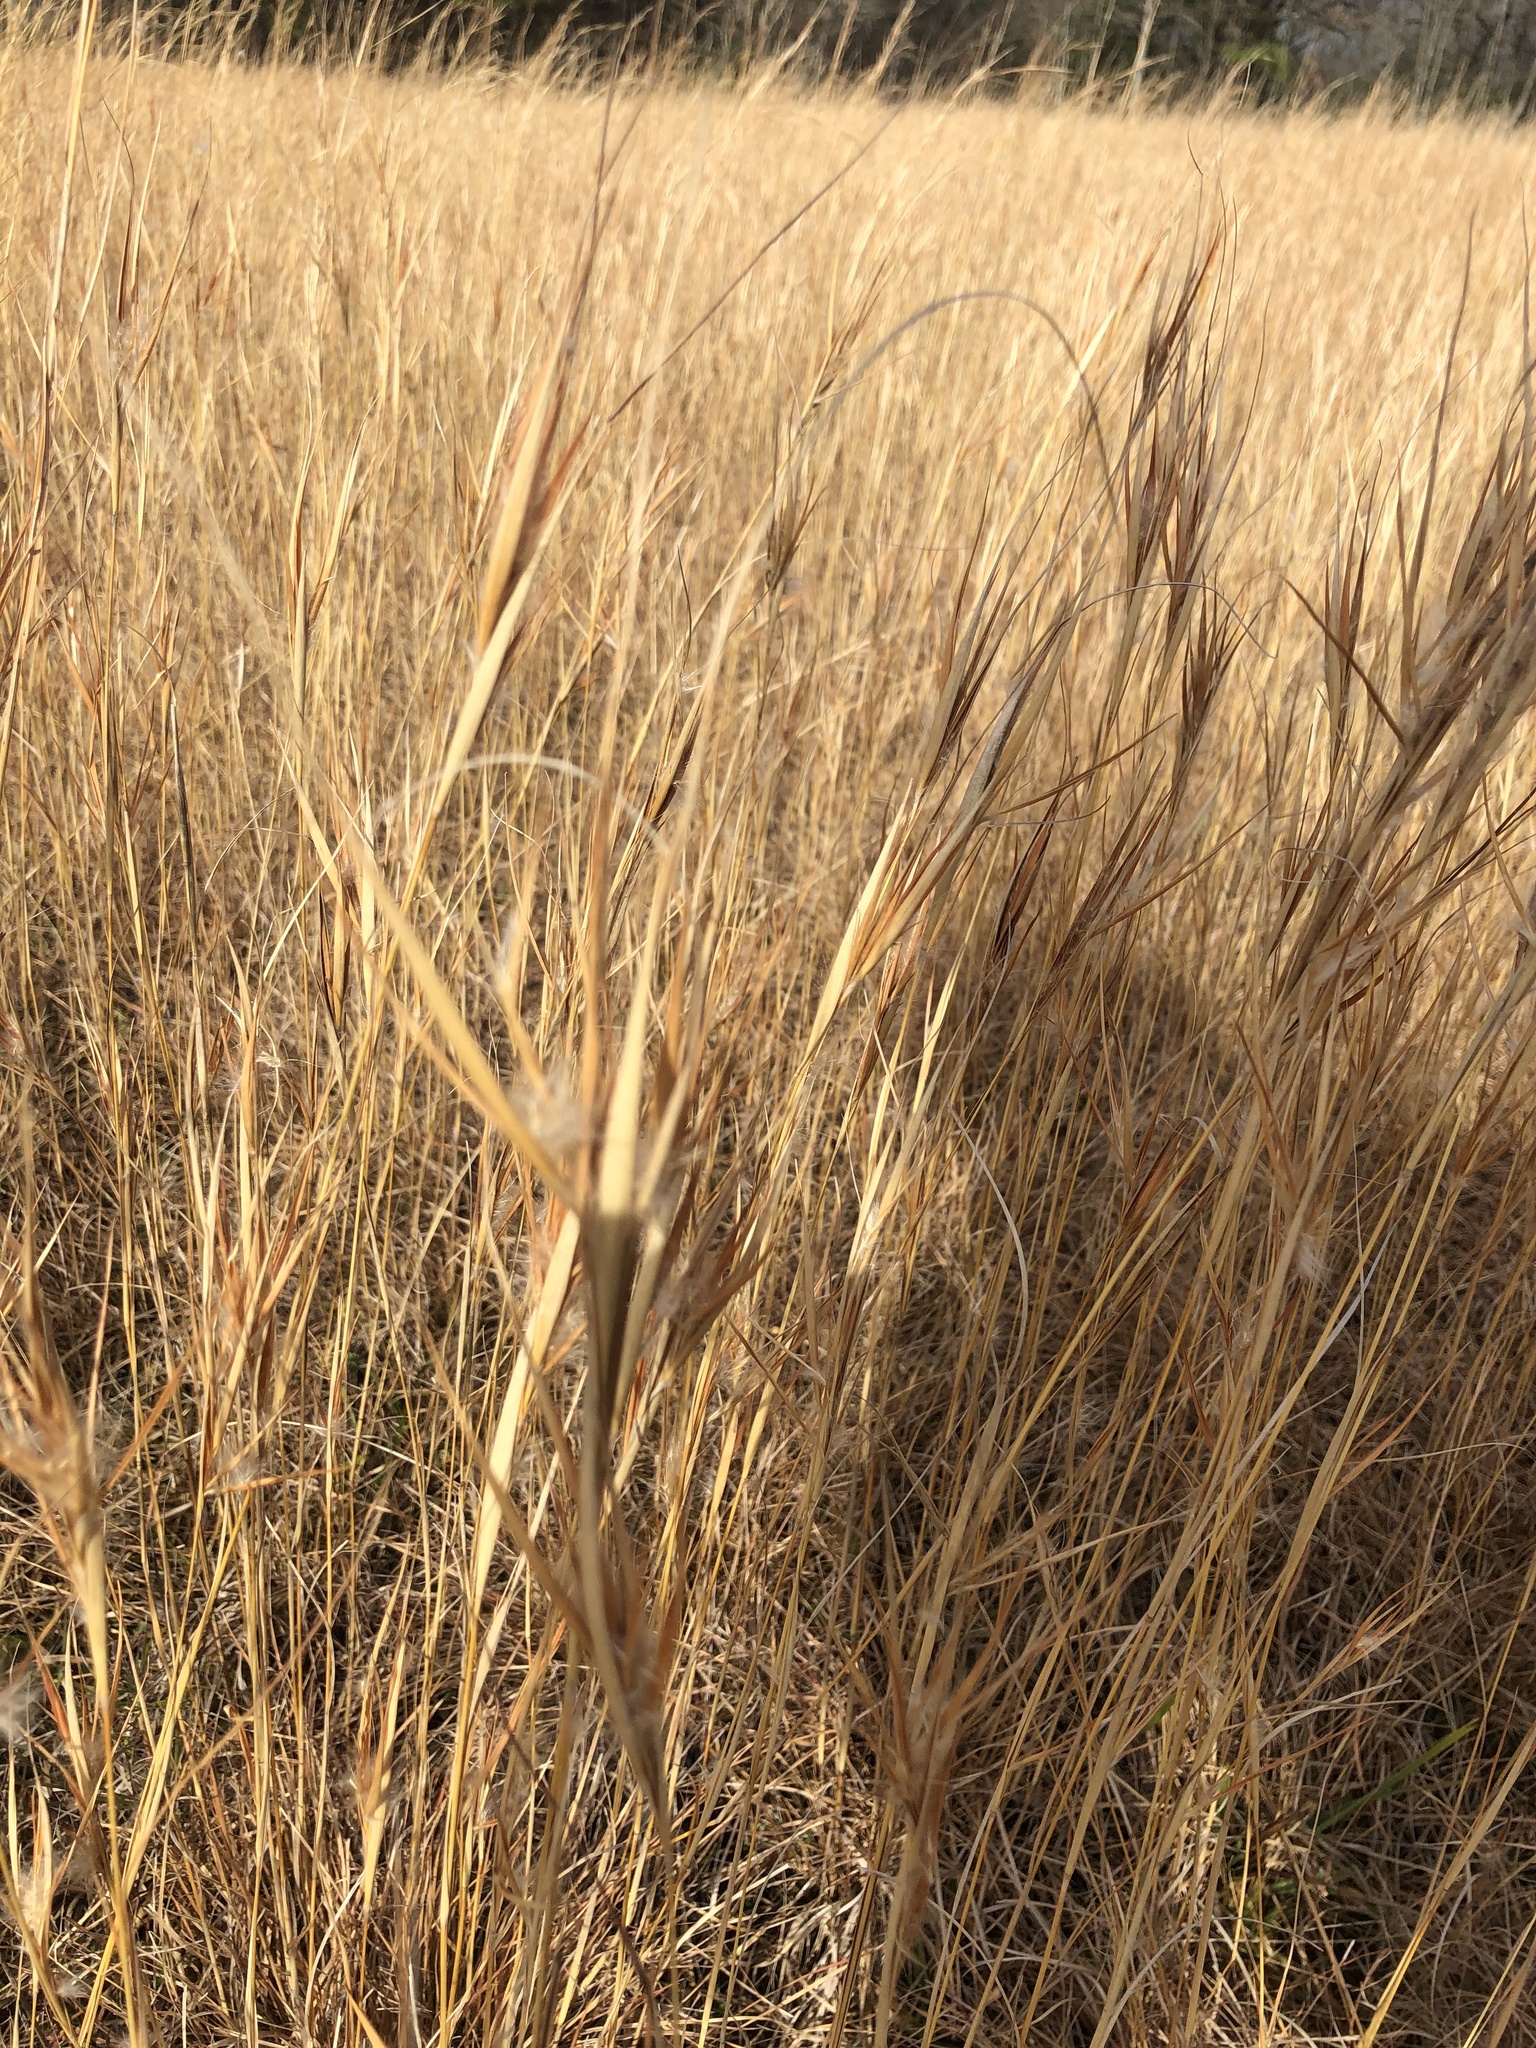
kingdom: Plantae
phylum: Tracheophyta
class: Liliopsida
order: Poales
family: Poaceae
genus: Andropogon
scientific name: Andropogon gyrans
